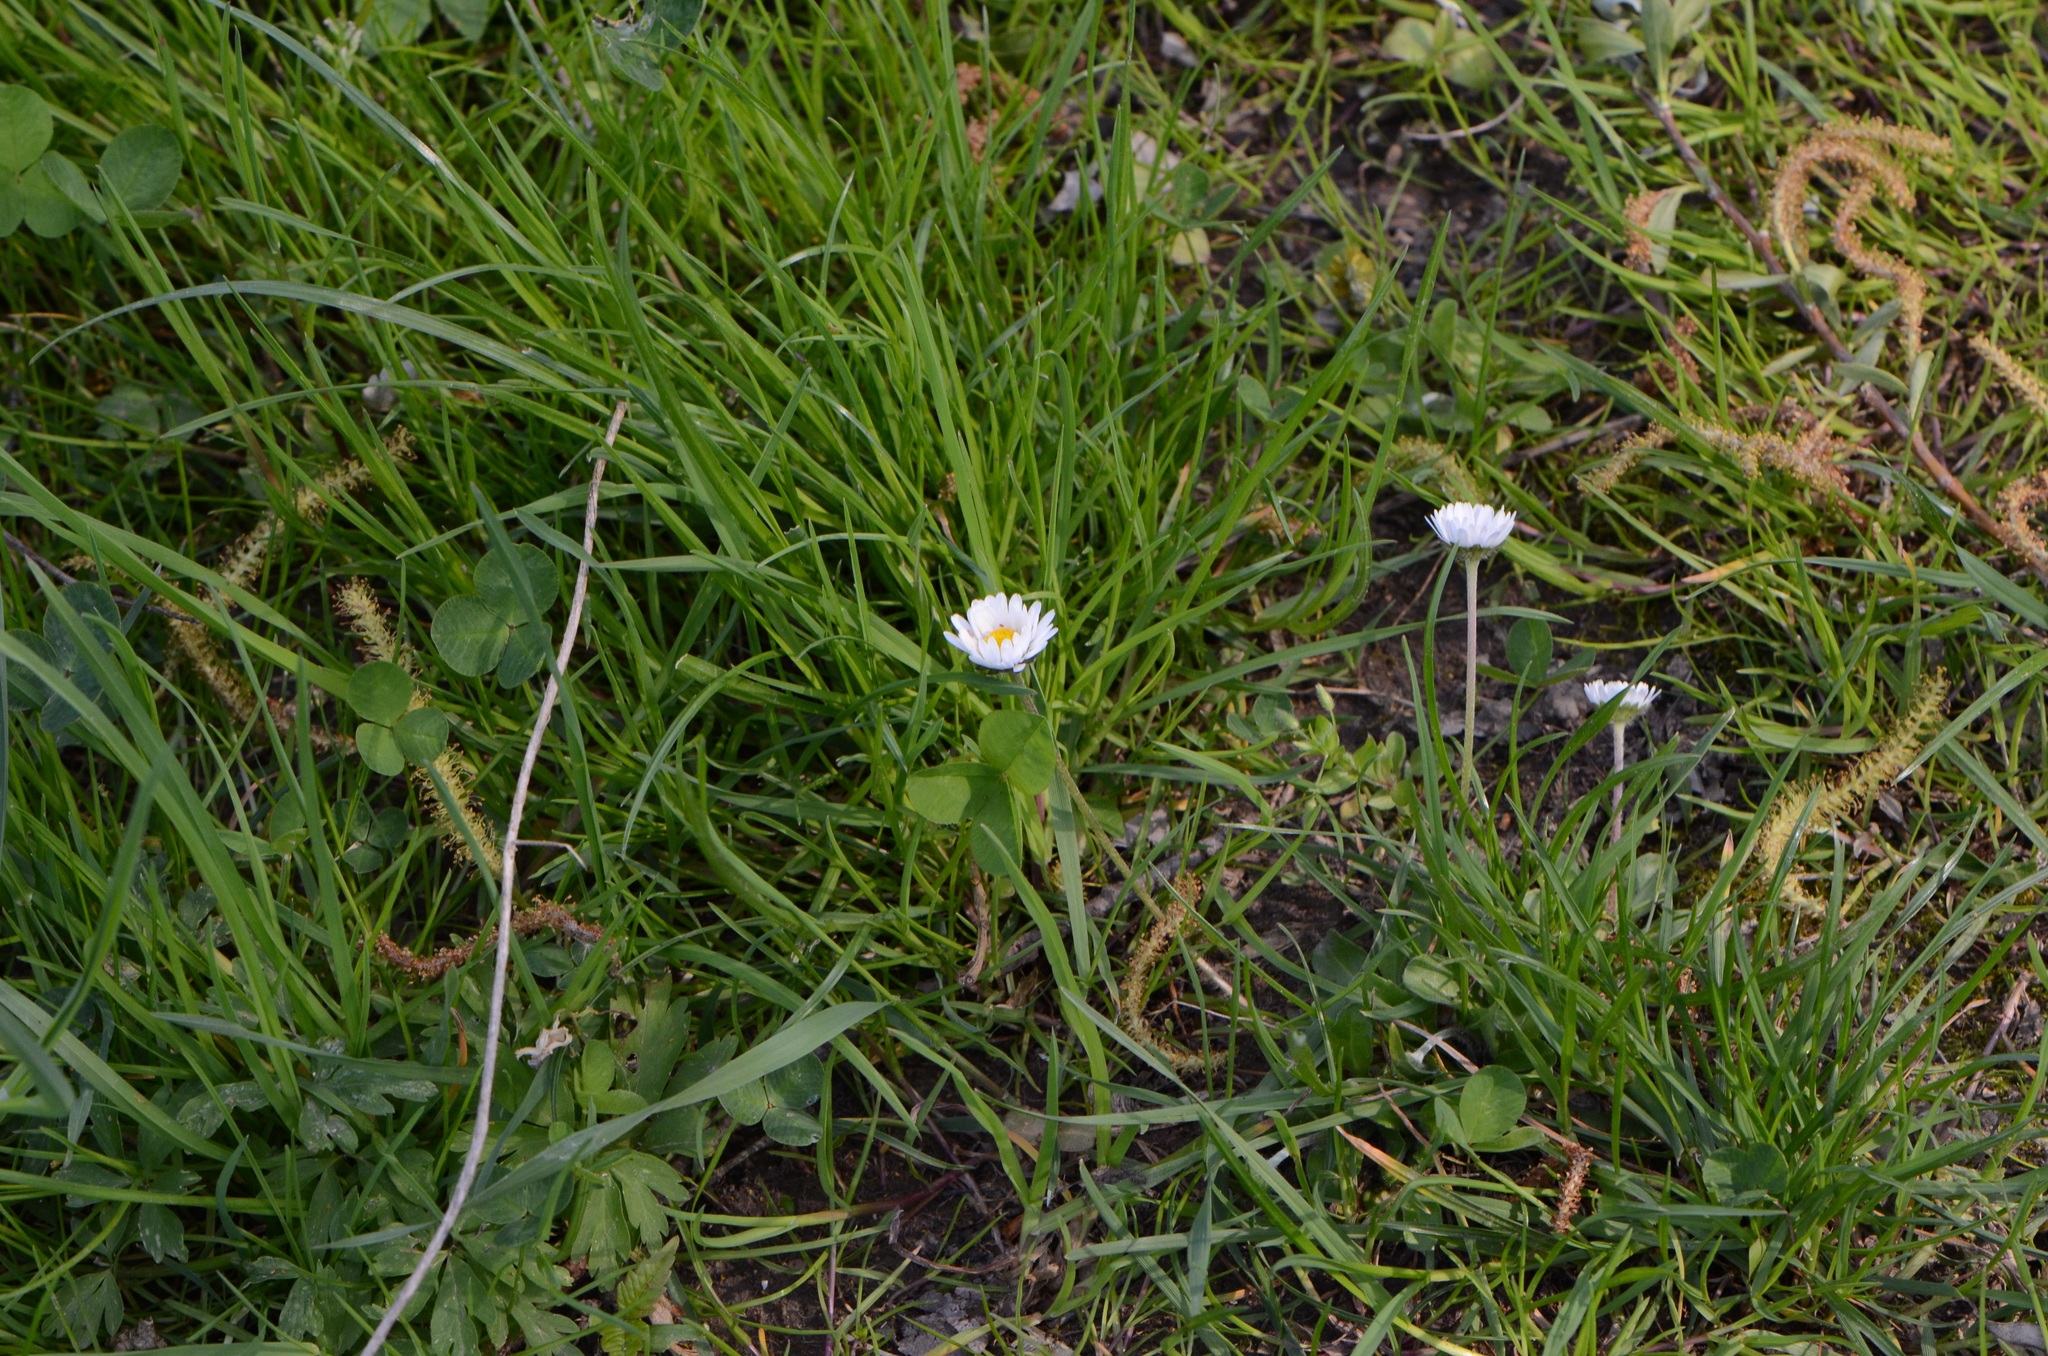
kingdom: Plantae
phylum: Tracheophyta
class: Magnoliopsida
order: Asterales
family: Asteraceae
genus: Bellis
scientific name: Bellis perennis
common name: Lawndaisy
